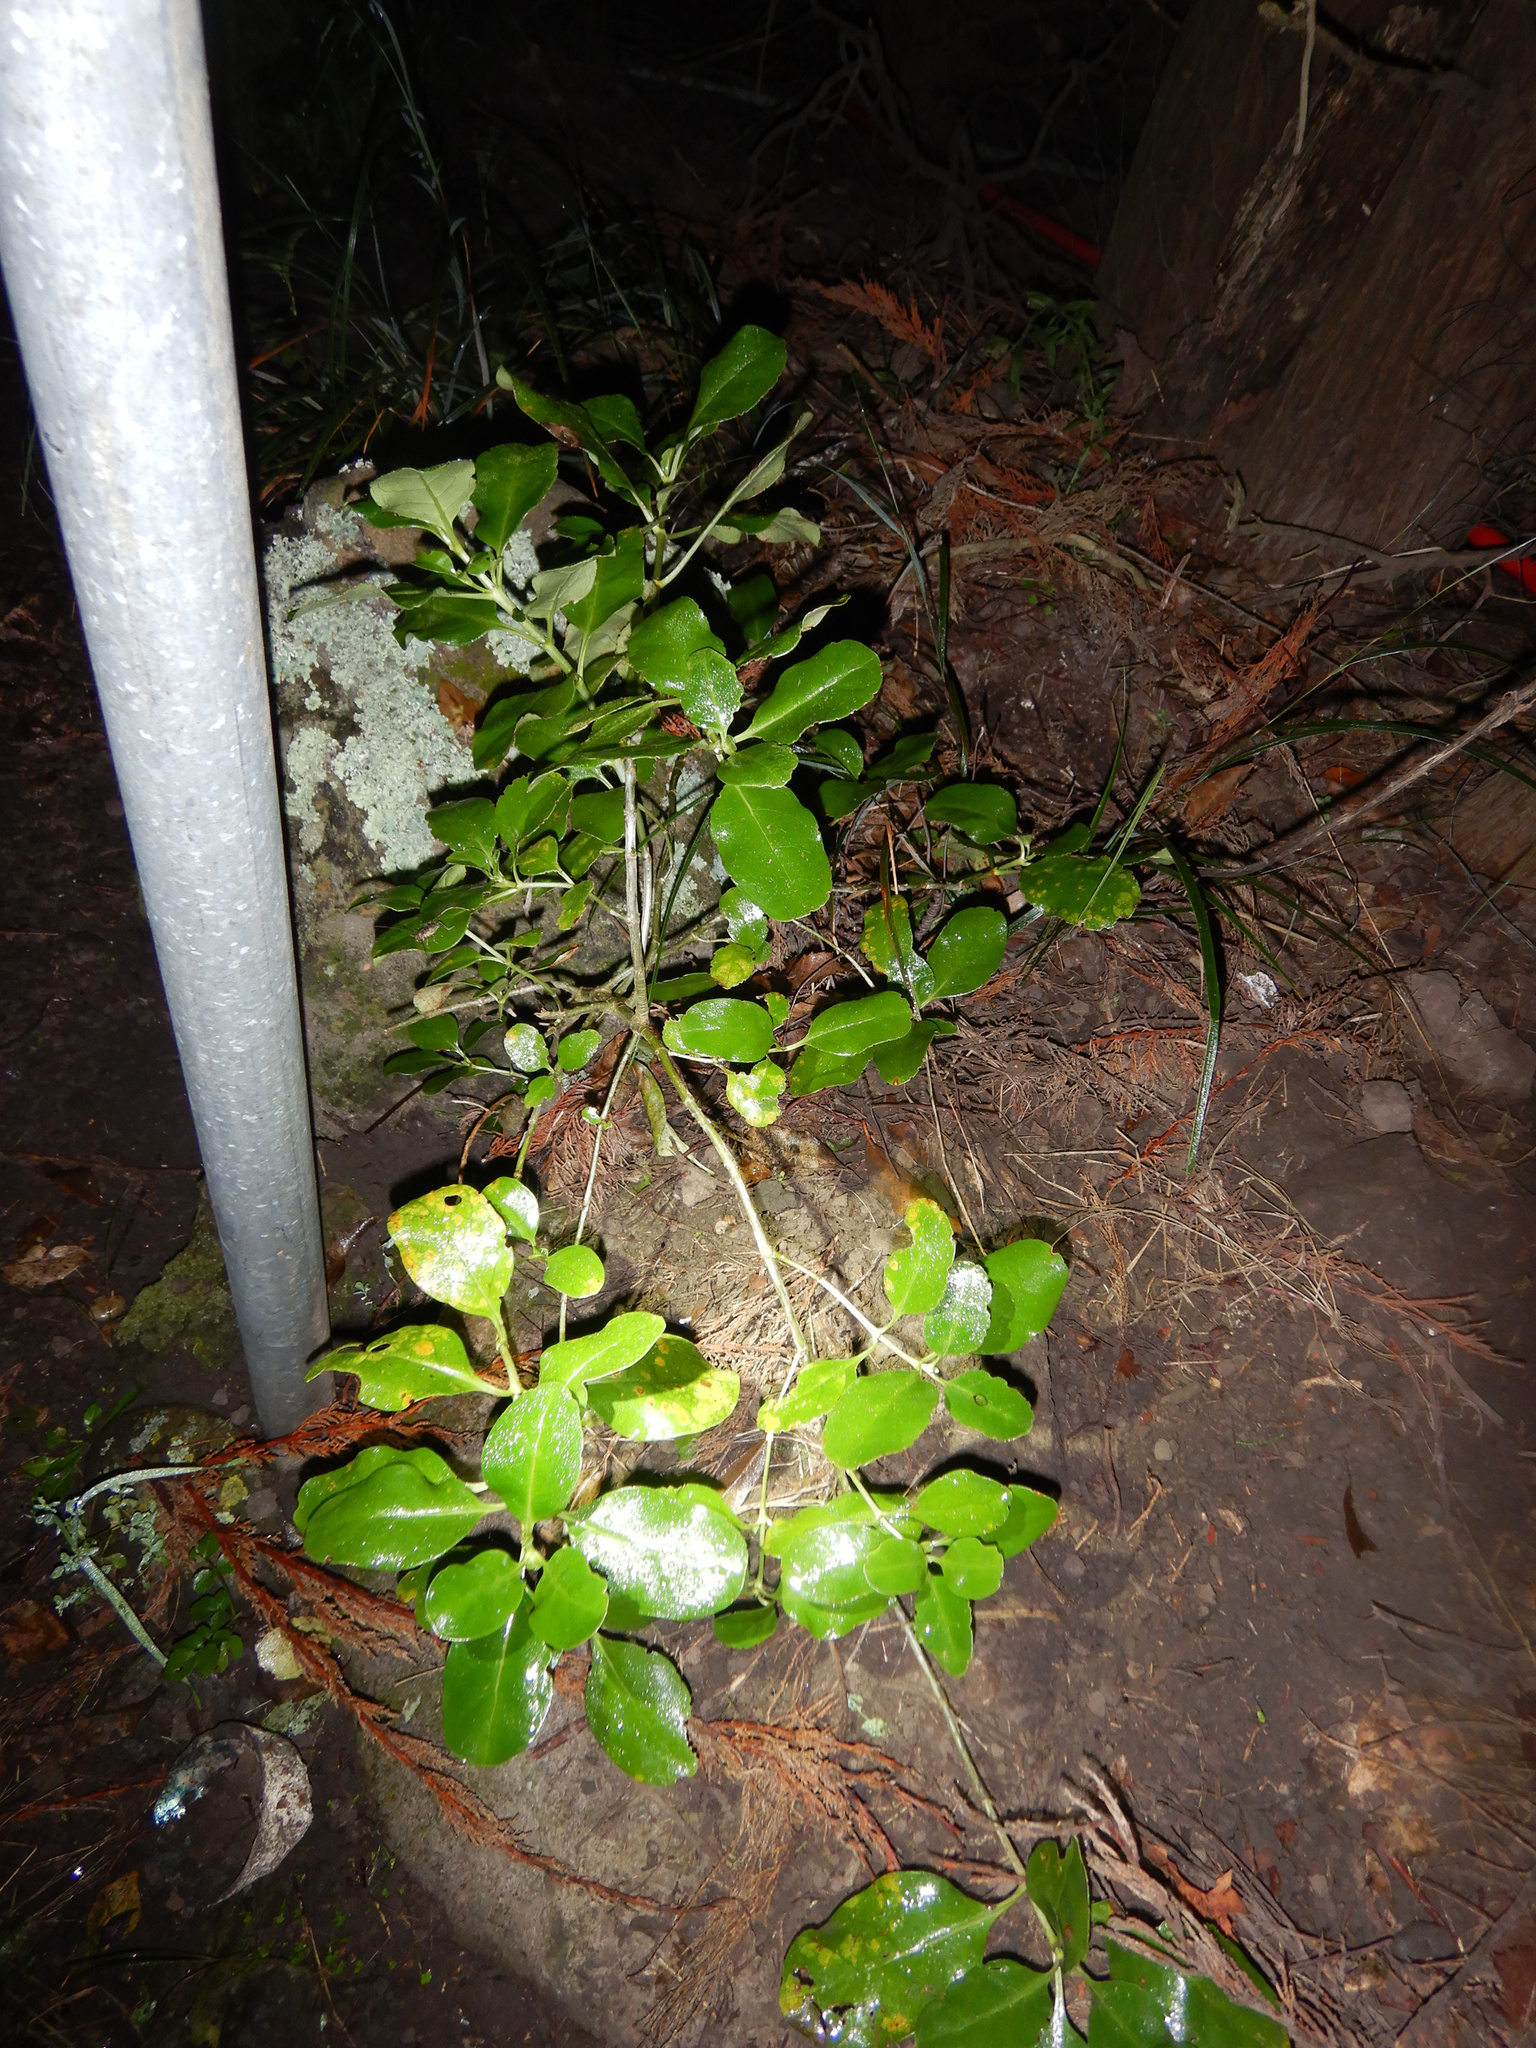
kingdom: Plantae
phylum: Tracheophyta
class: Magnoliopsida
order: Gentianales
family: Rubiaceae
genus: Coprosma
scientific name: Coprosma repens
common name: Tree bedstraw
